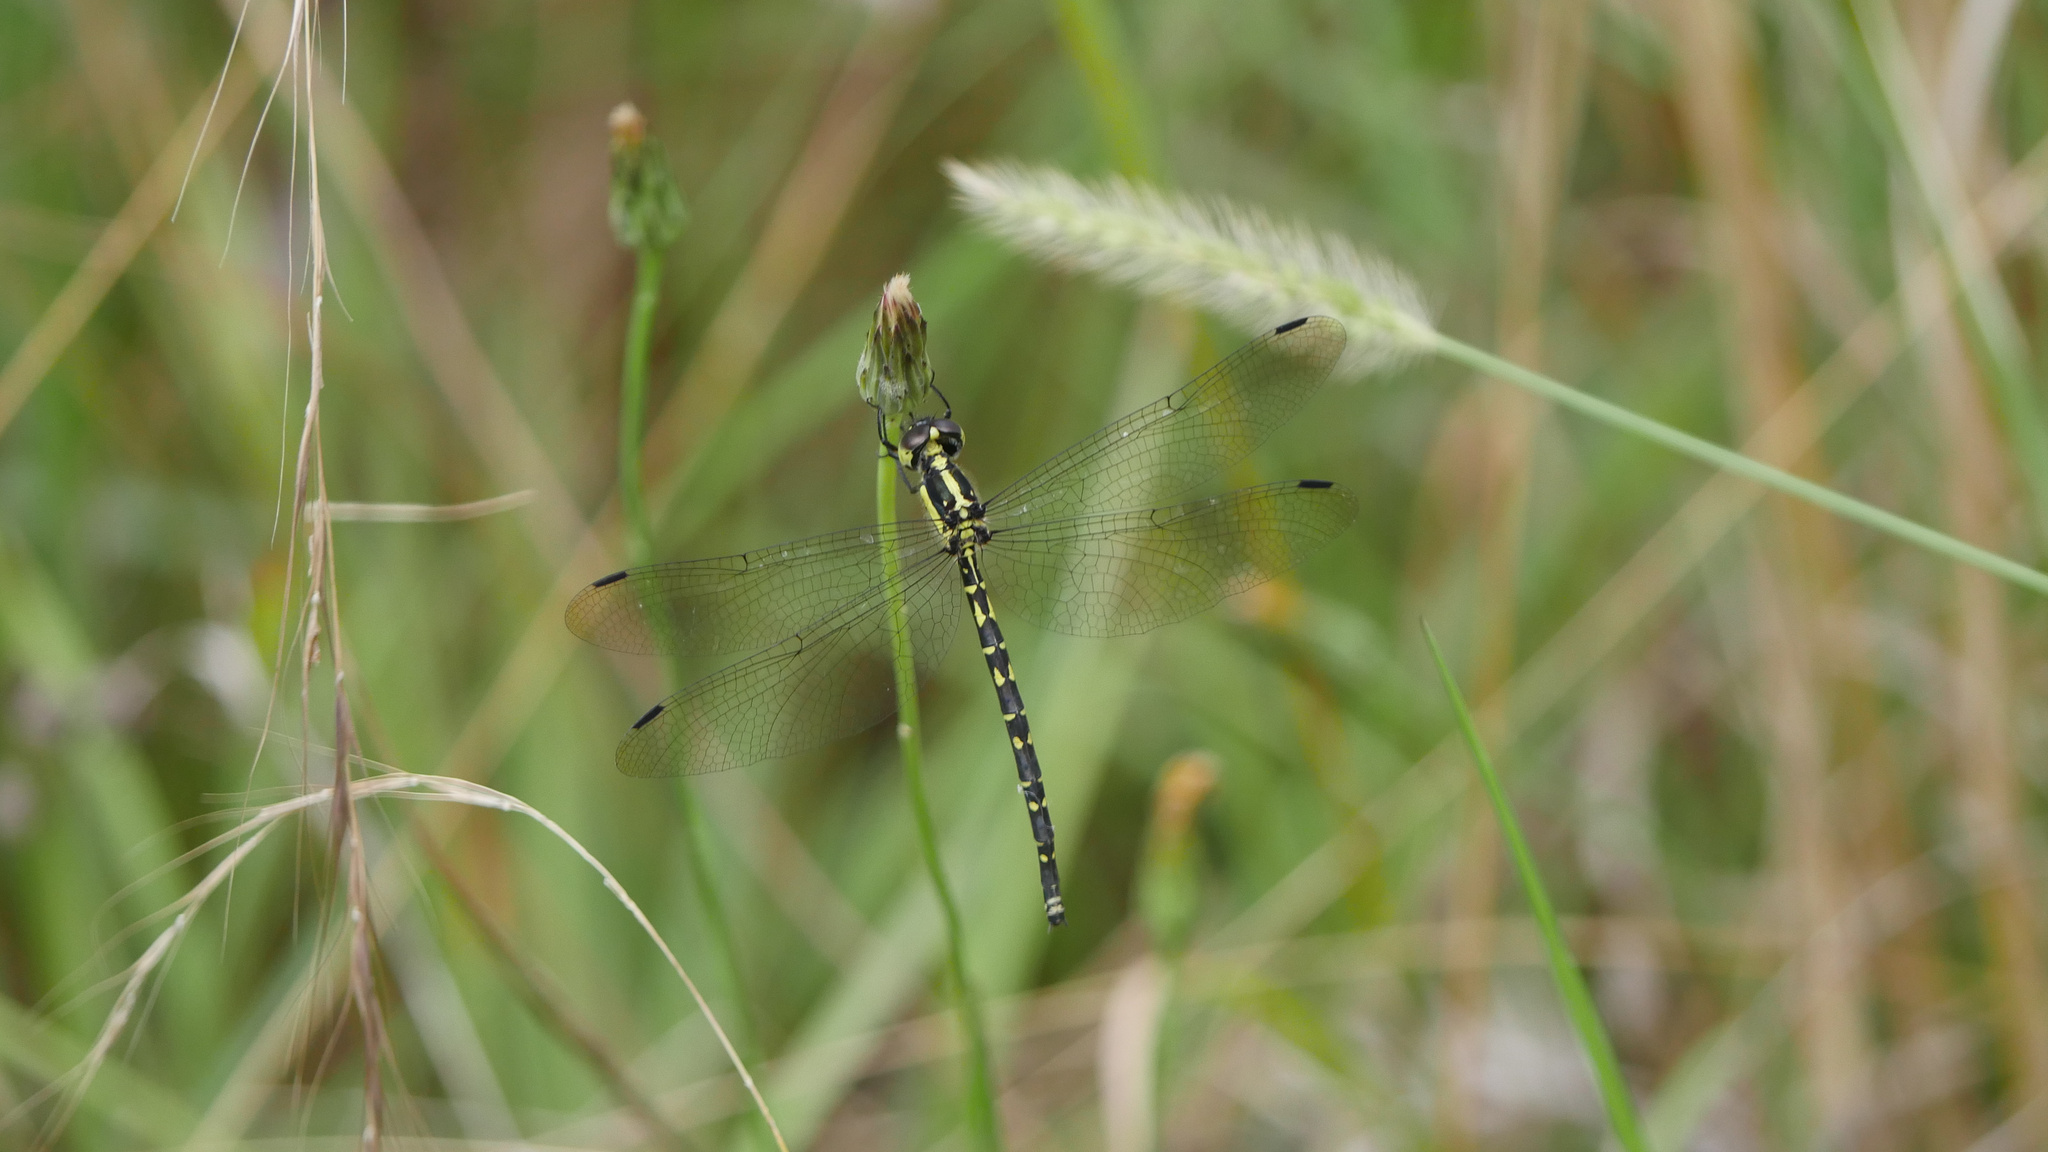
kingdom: Animalia
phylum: Arthropoda
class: Insecta
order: Odonata
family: Synthemistidae
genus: Choristhemis
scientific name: Choristhemis flavoterminata
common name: Yellow-tipped tigertail
